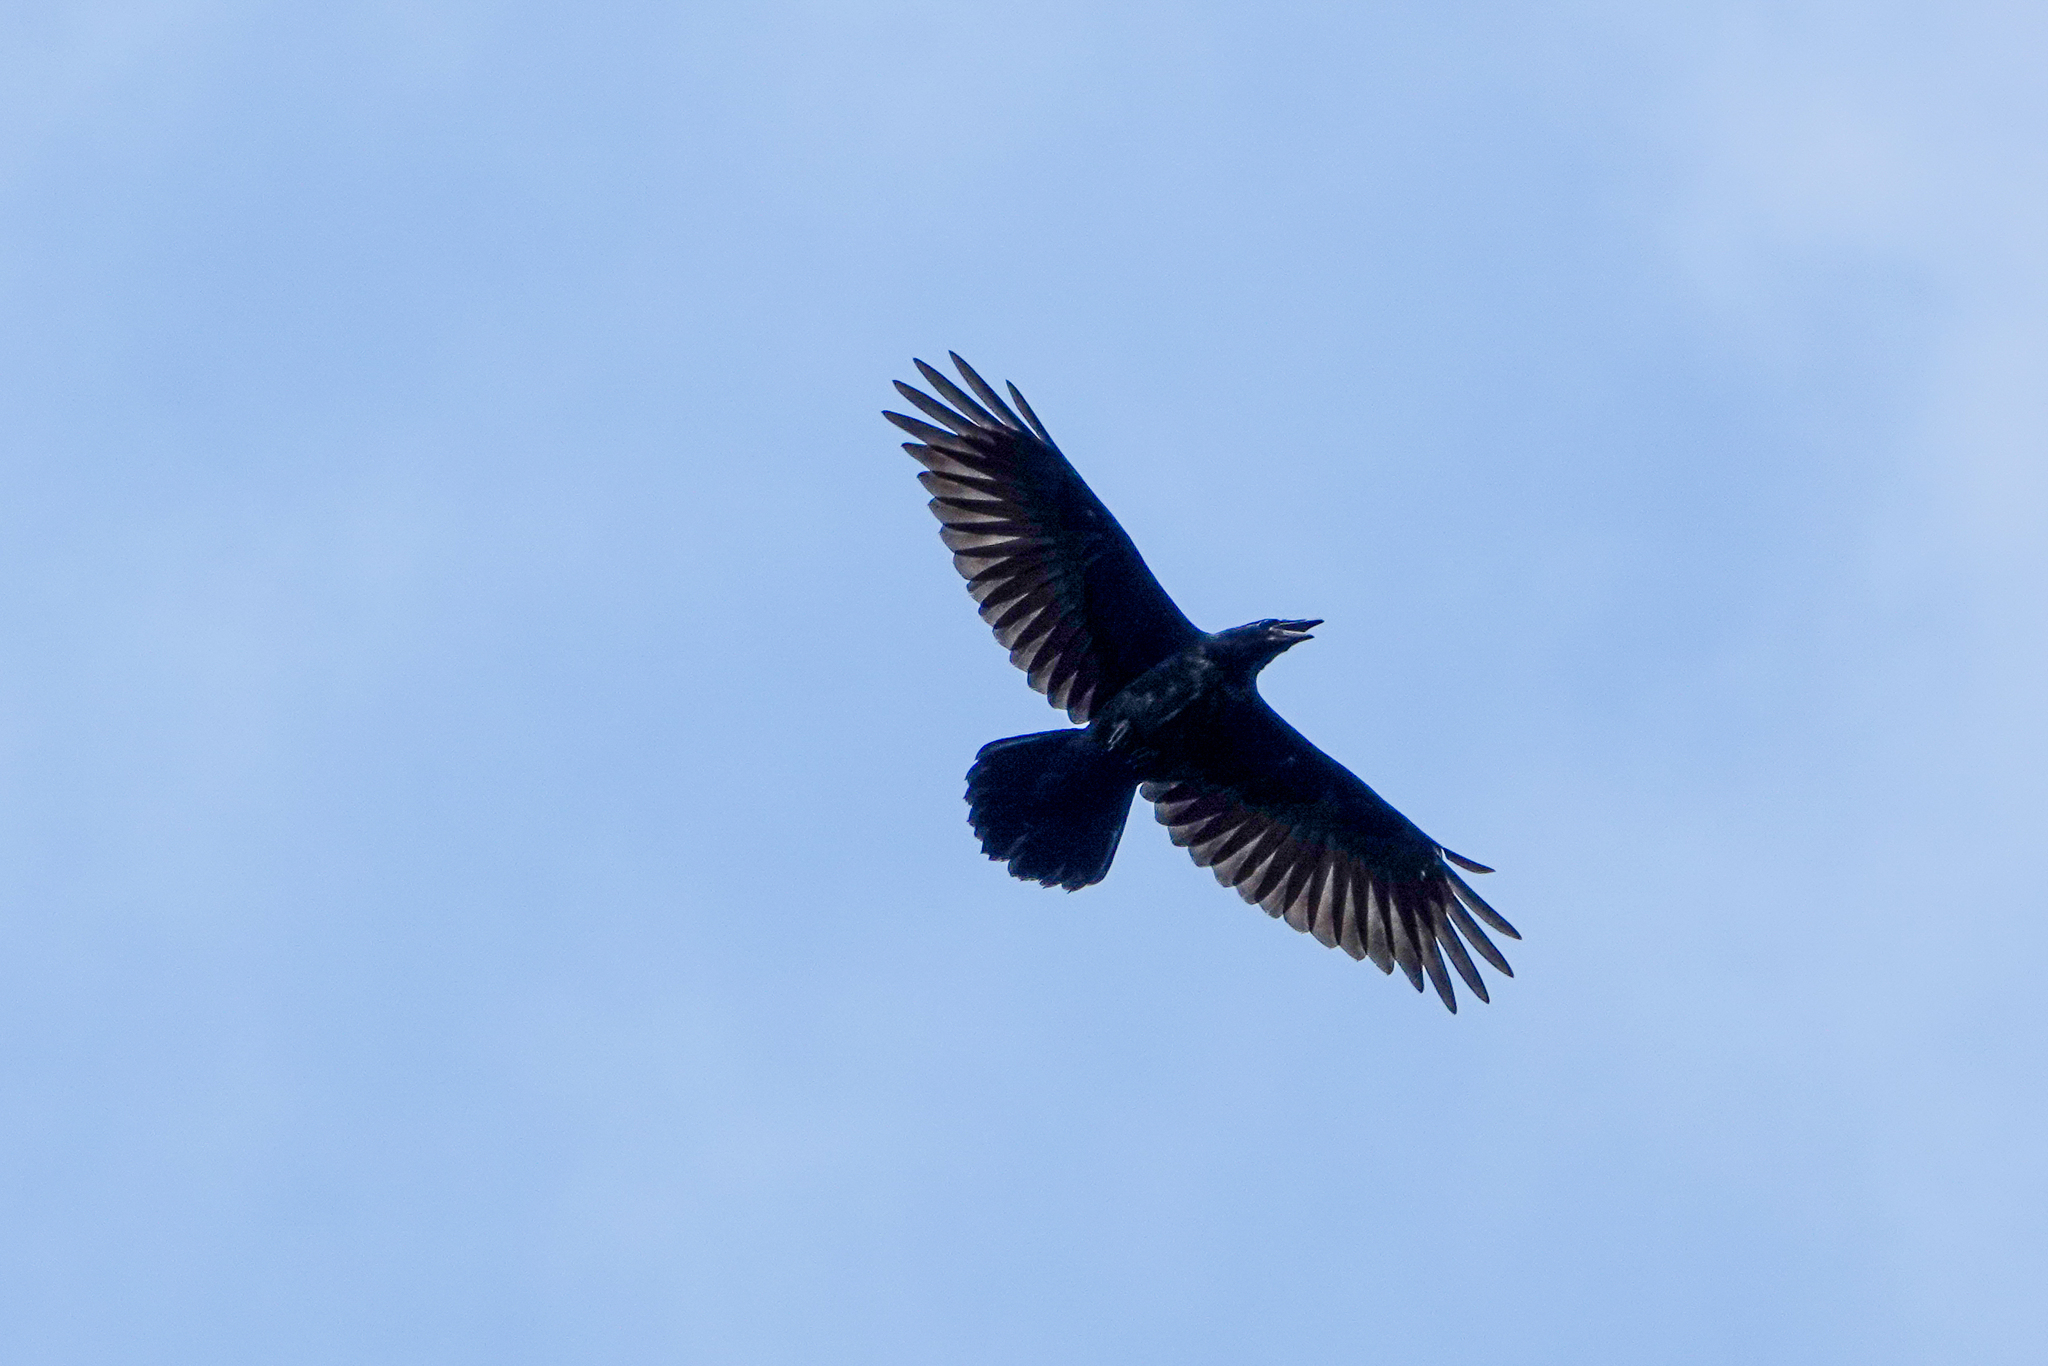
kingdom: Animalia
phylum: Chordata
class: Aves
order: Passeriformes
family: Corvidae
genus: Corvus
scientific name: Corvus corax
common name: Common raven
